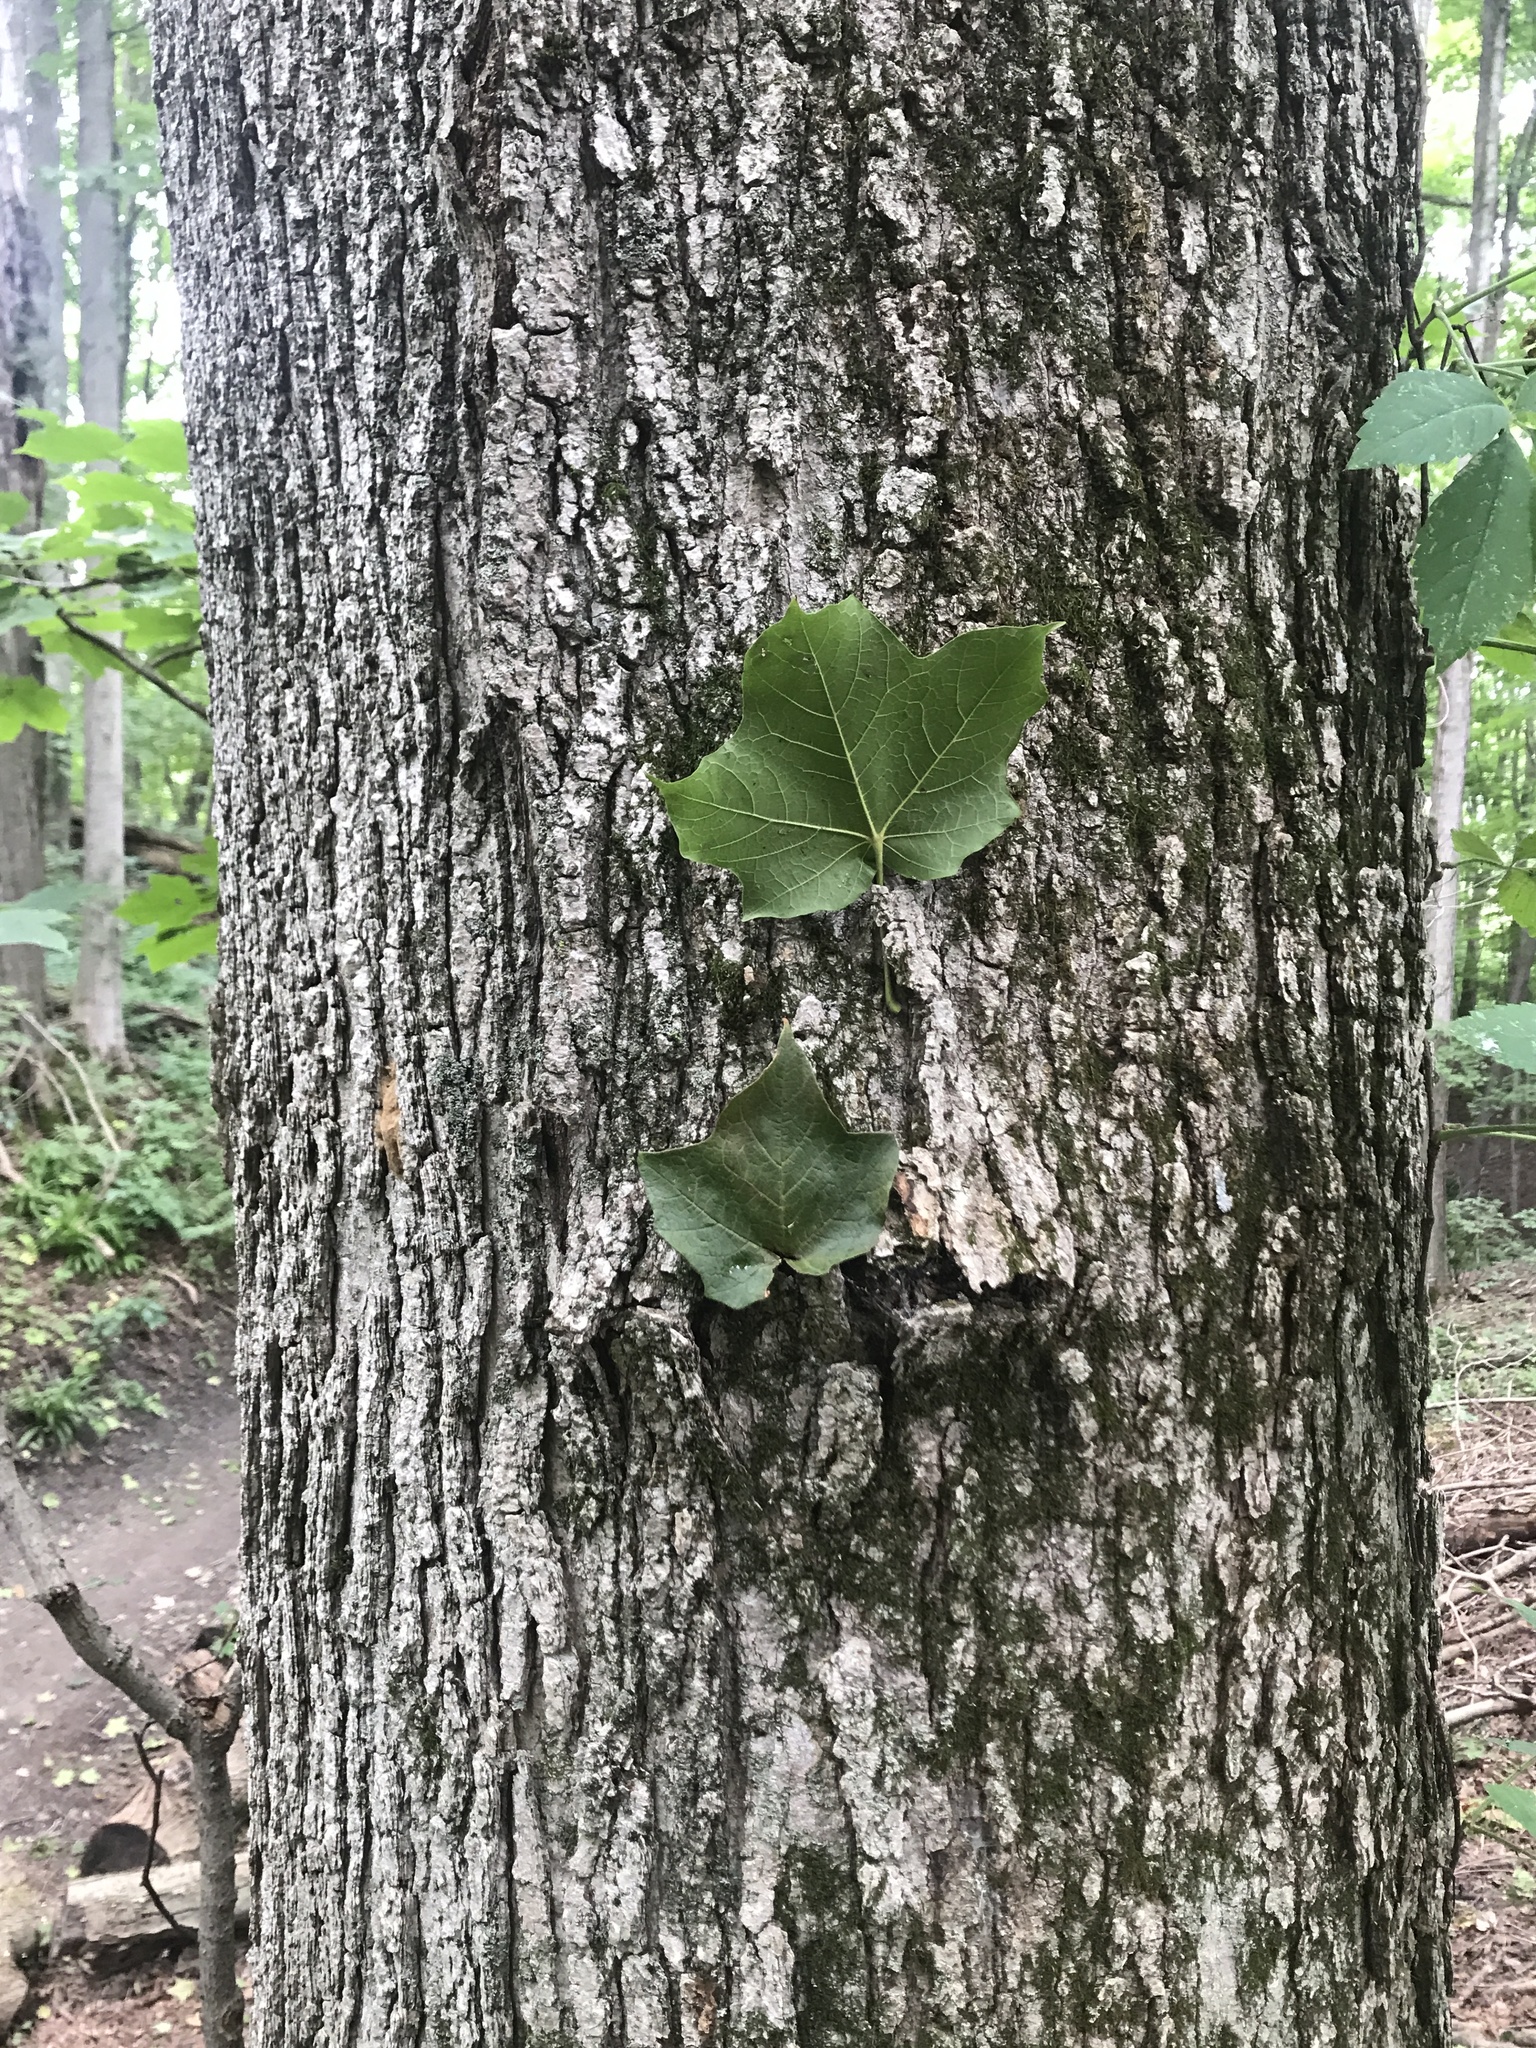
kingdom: Plantae
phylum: Tracheophyta
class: Magnoliopsida
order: Sapindales
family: Sapindaceae
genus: Acer
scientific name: Acer nigrum
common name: Black maple
